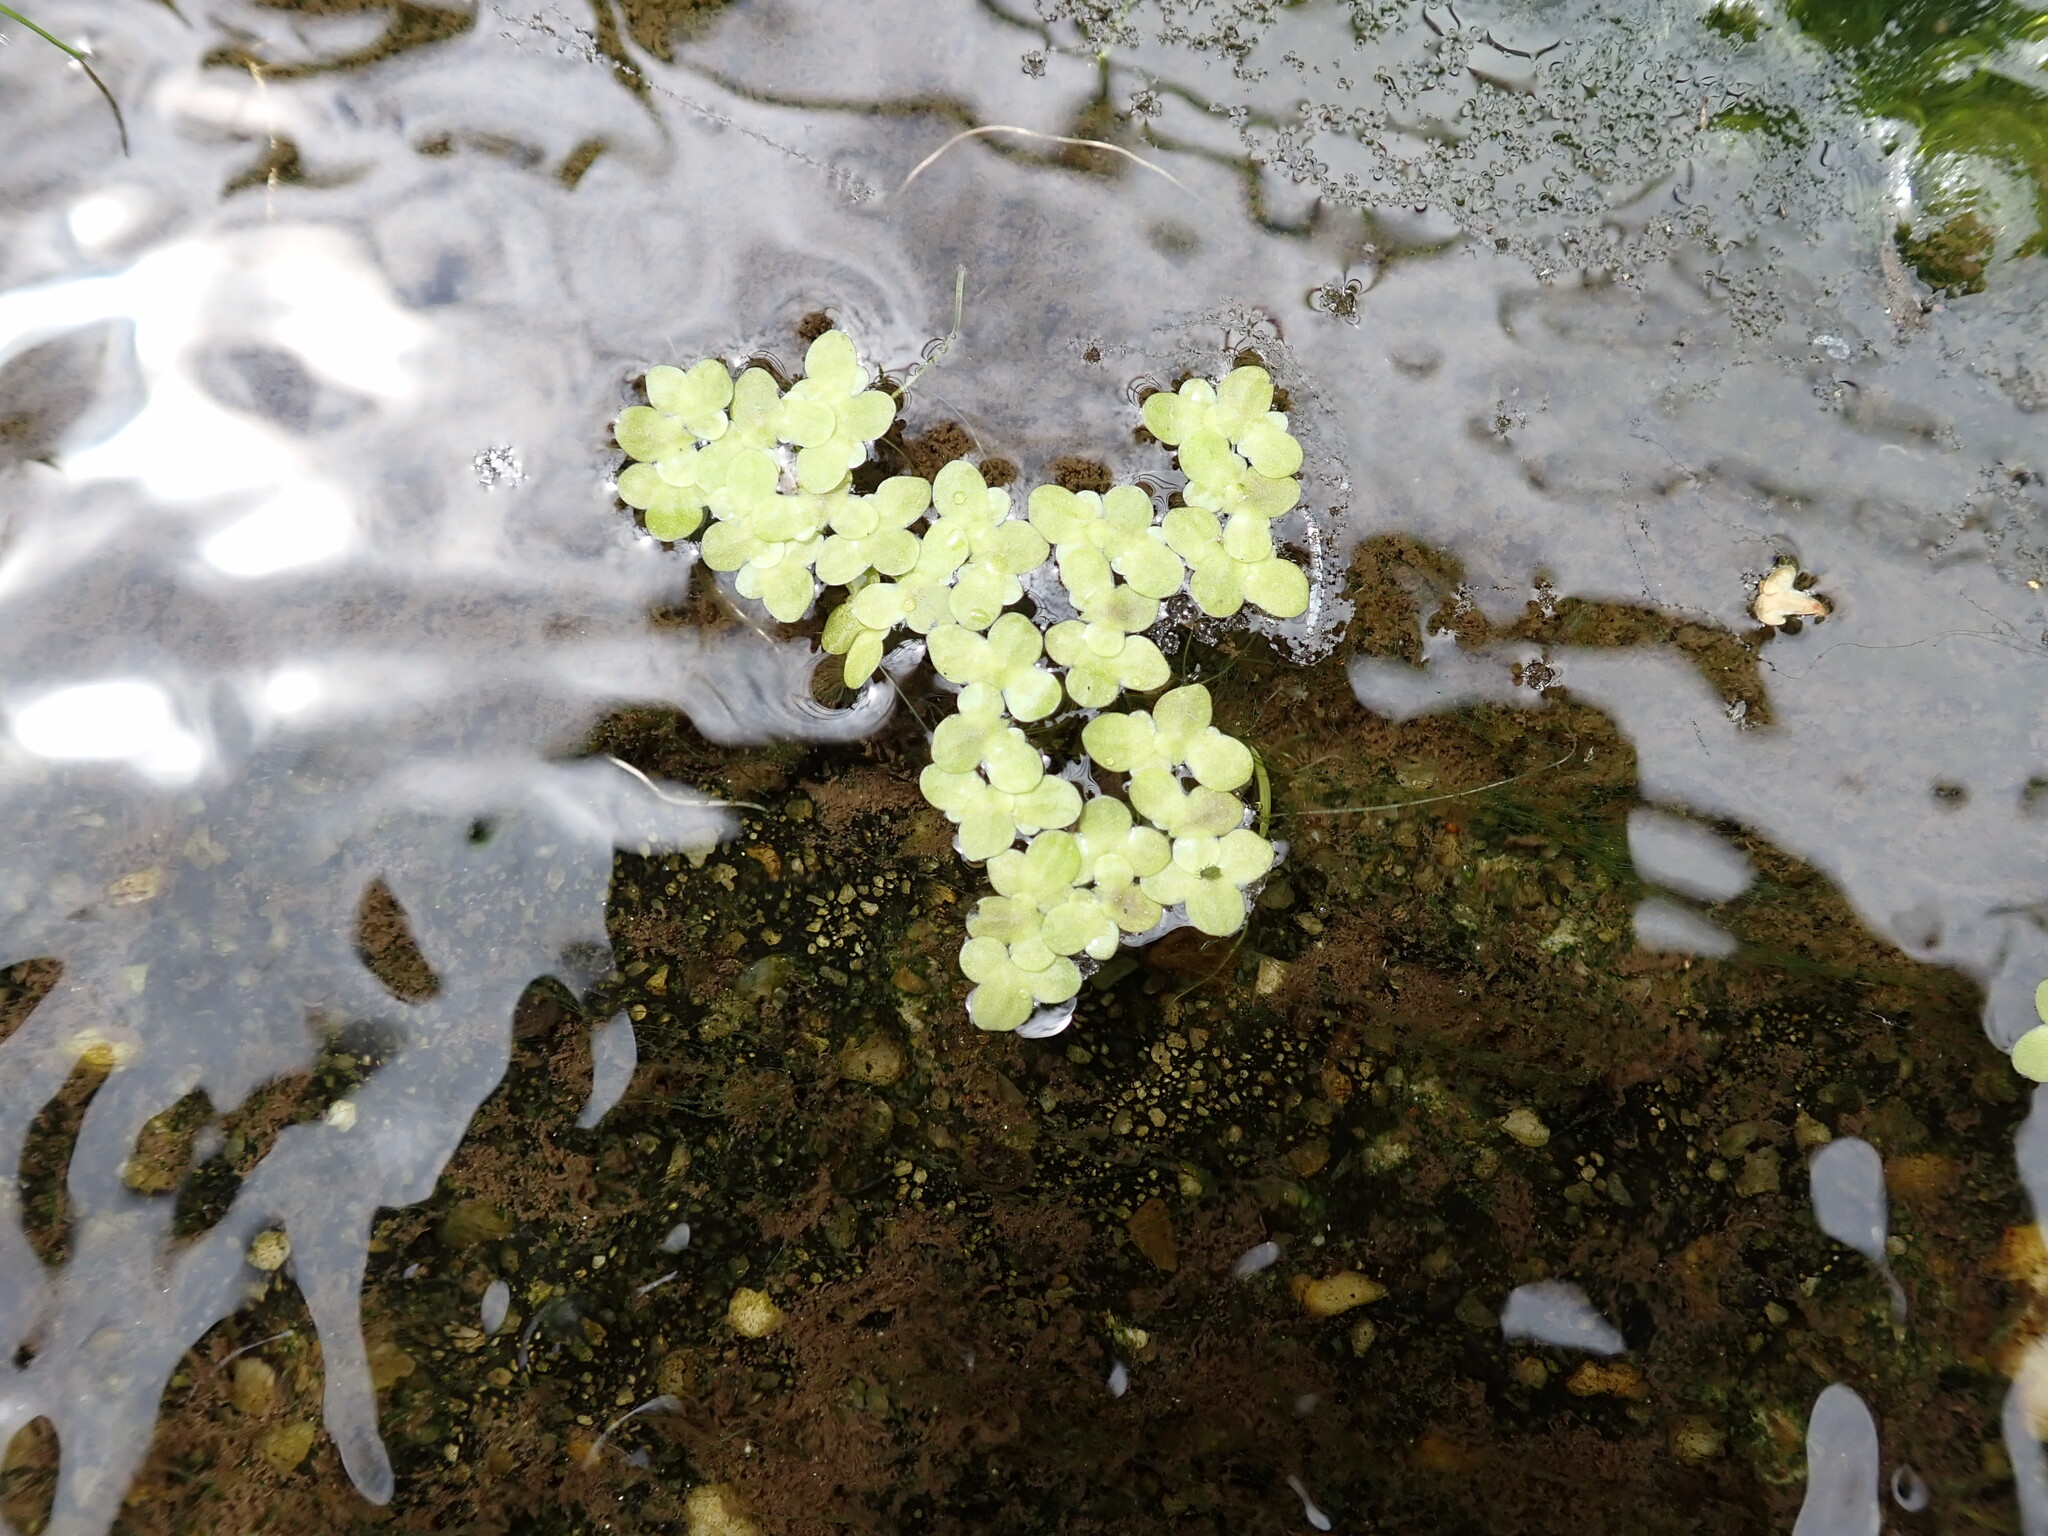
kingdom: Plantae
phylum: Tracheophyta
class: Liliopsida
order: Alismatales
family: Araceae
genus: Lemna
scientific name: Lemna minor
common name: Common duckweed
